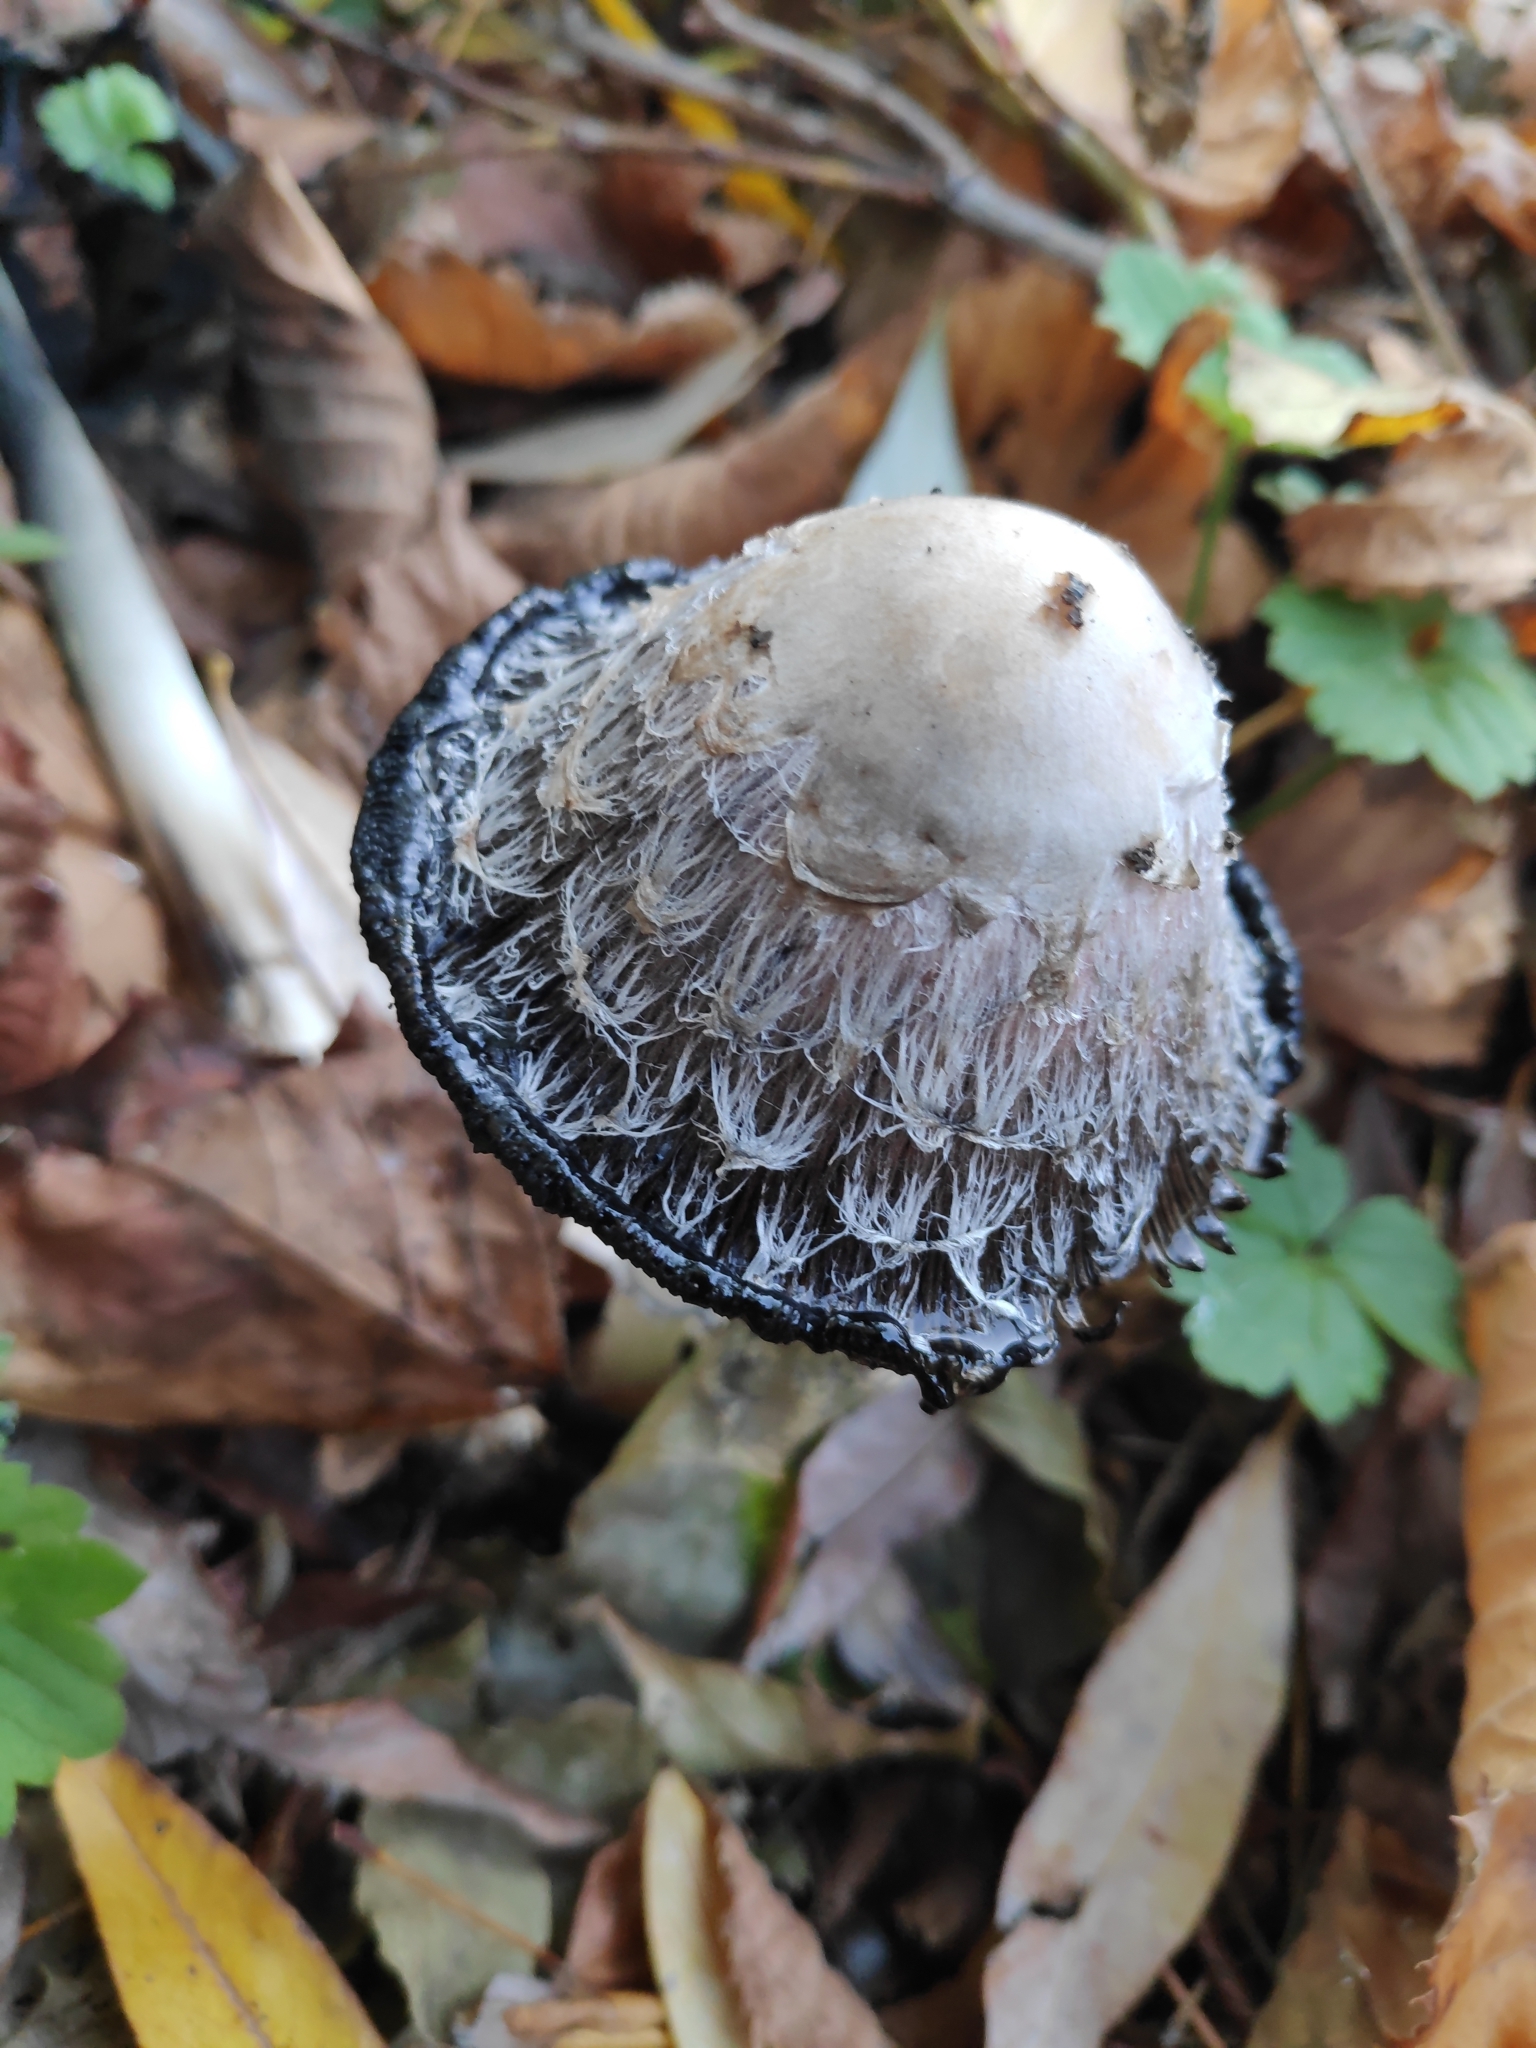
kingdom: Fungi
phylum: Basidiomycota
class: Agaricomycetes
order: Agaricales
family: Agaricaceae
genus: Coprinus
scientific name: Coprinus comatus
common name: Lawyer's wig
